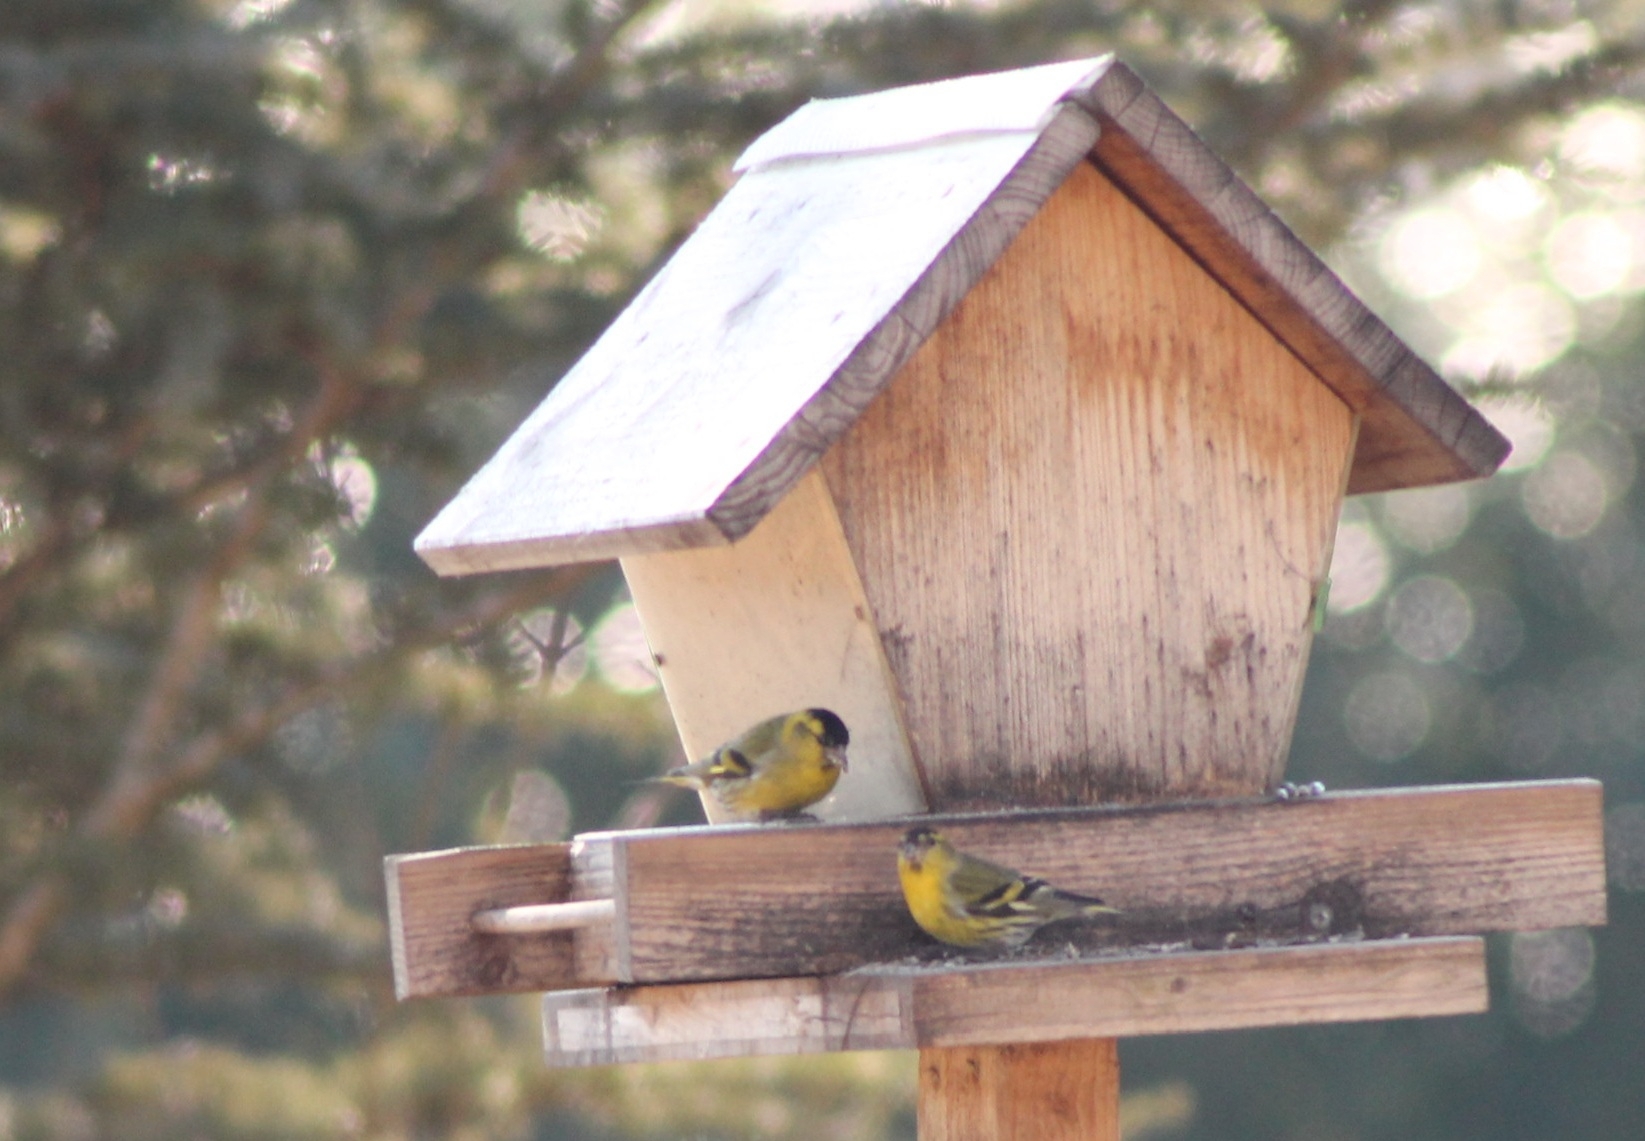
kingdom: Animalia
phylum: Chordata
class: Aves
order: Passeriformes
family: Fringillidae
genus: Spinus
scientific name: Spinus spinus
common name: Eurasian siskin
